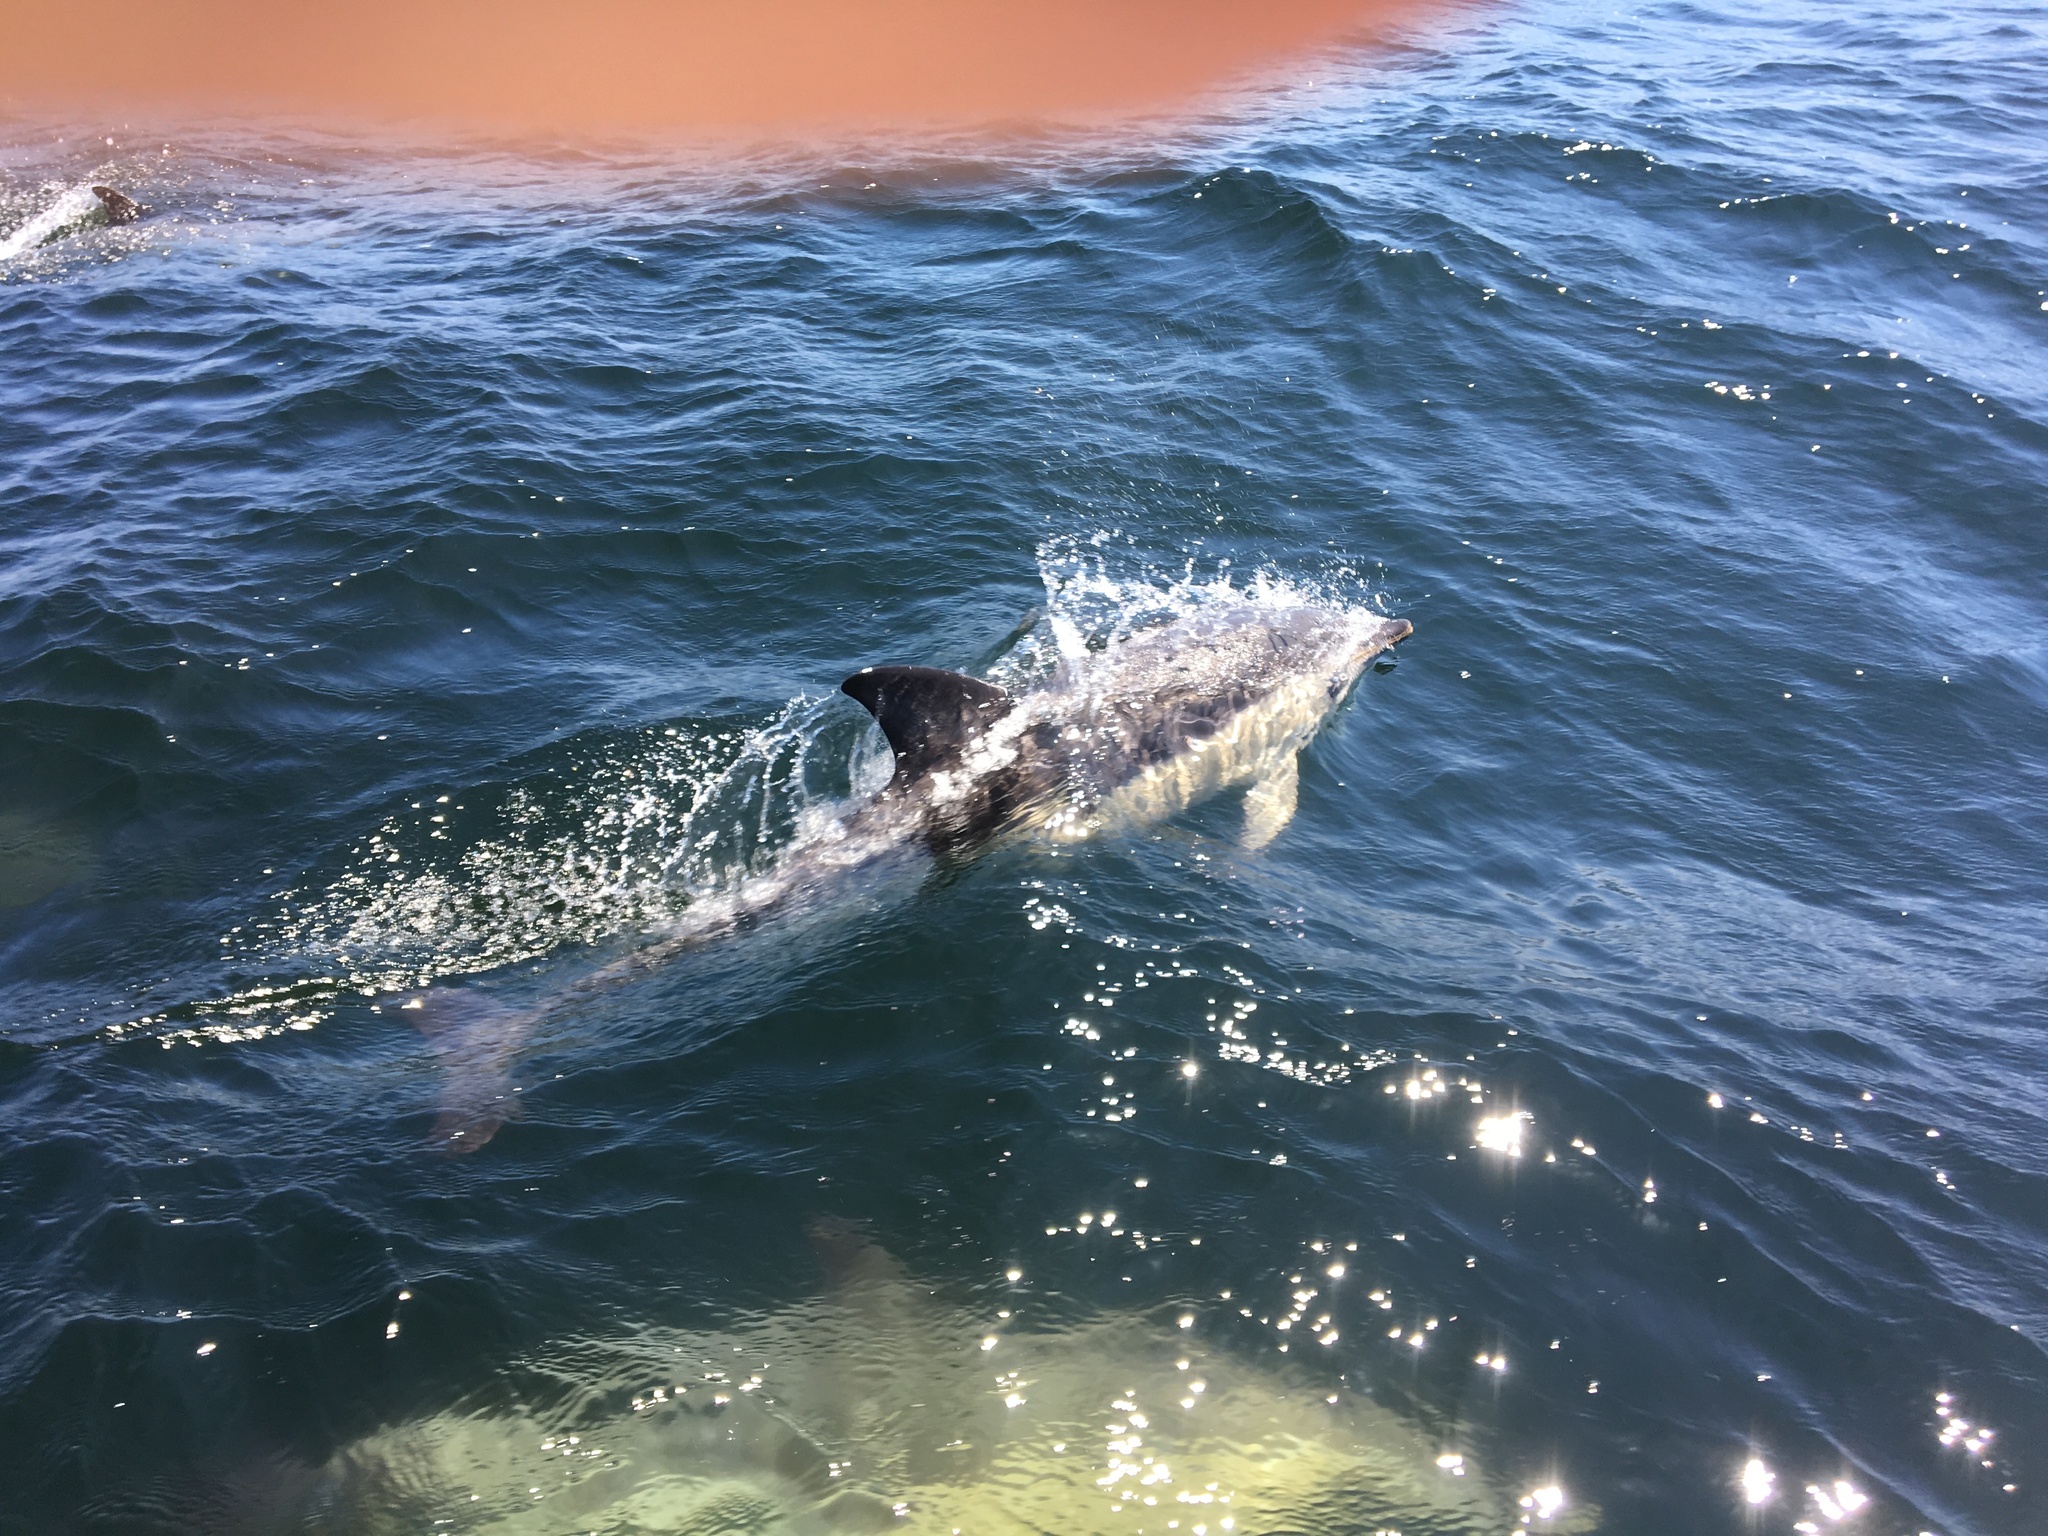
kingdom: Animalia
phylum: Chordata
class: Mammalia
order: Cetacea
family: Delphinidae
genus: Delphinus
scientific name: Delphinus delphis
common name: Common dolphin
